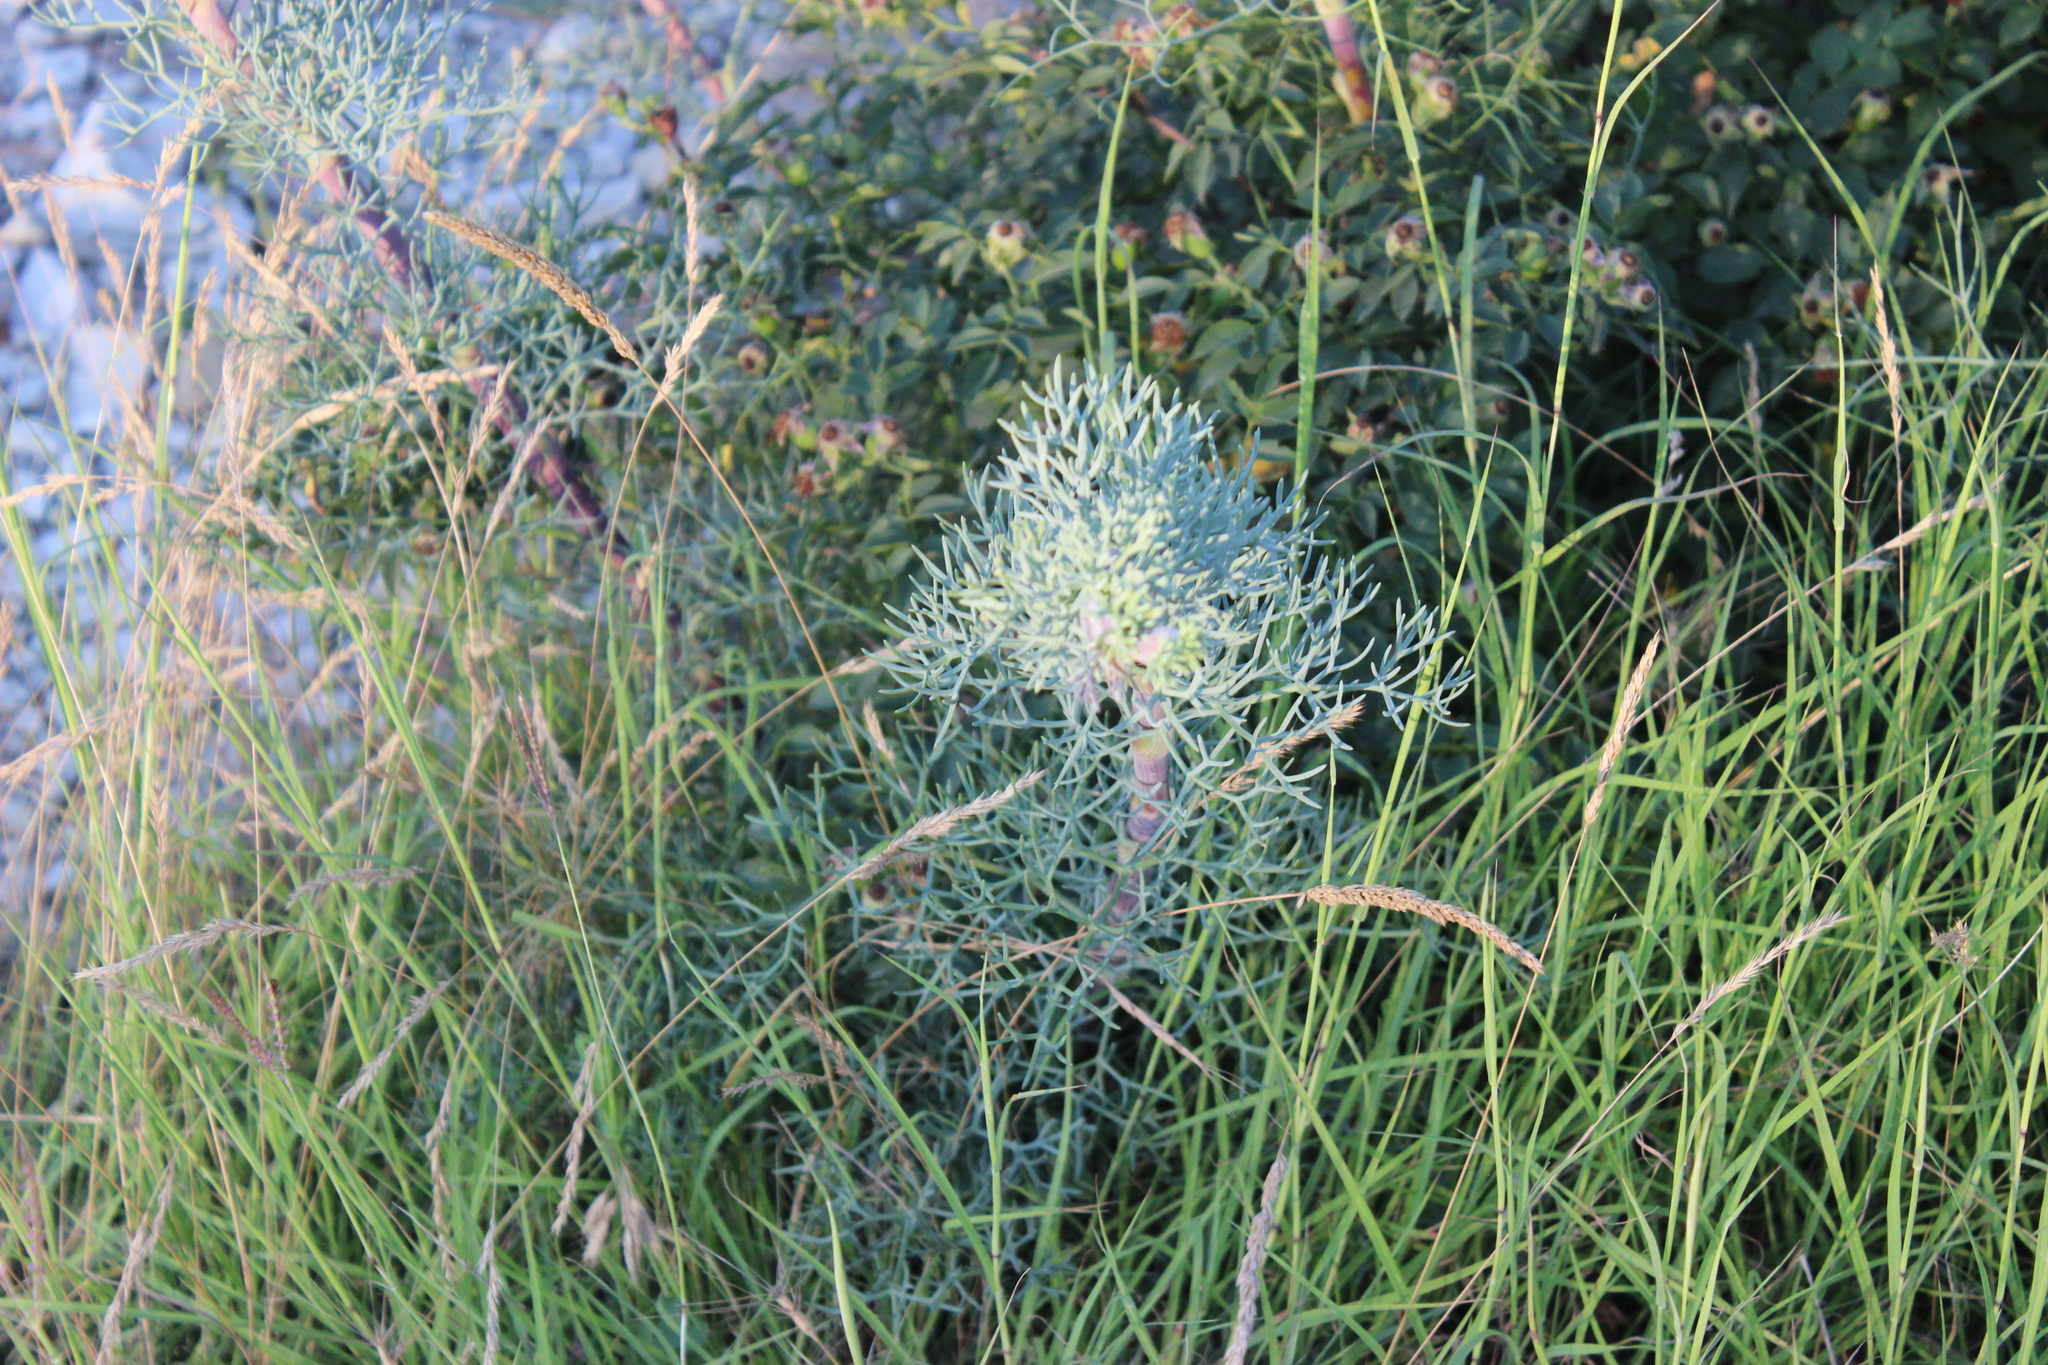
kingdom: Plantae
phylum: Tracheophyta
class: Magnoliopsida
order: Apiales
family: Apiaceae
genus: Seseli
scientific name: Seseli ponticum
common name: Pontic seseli
